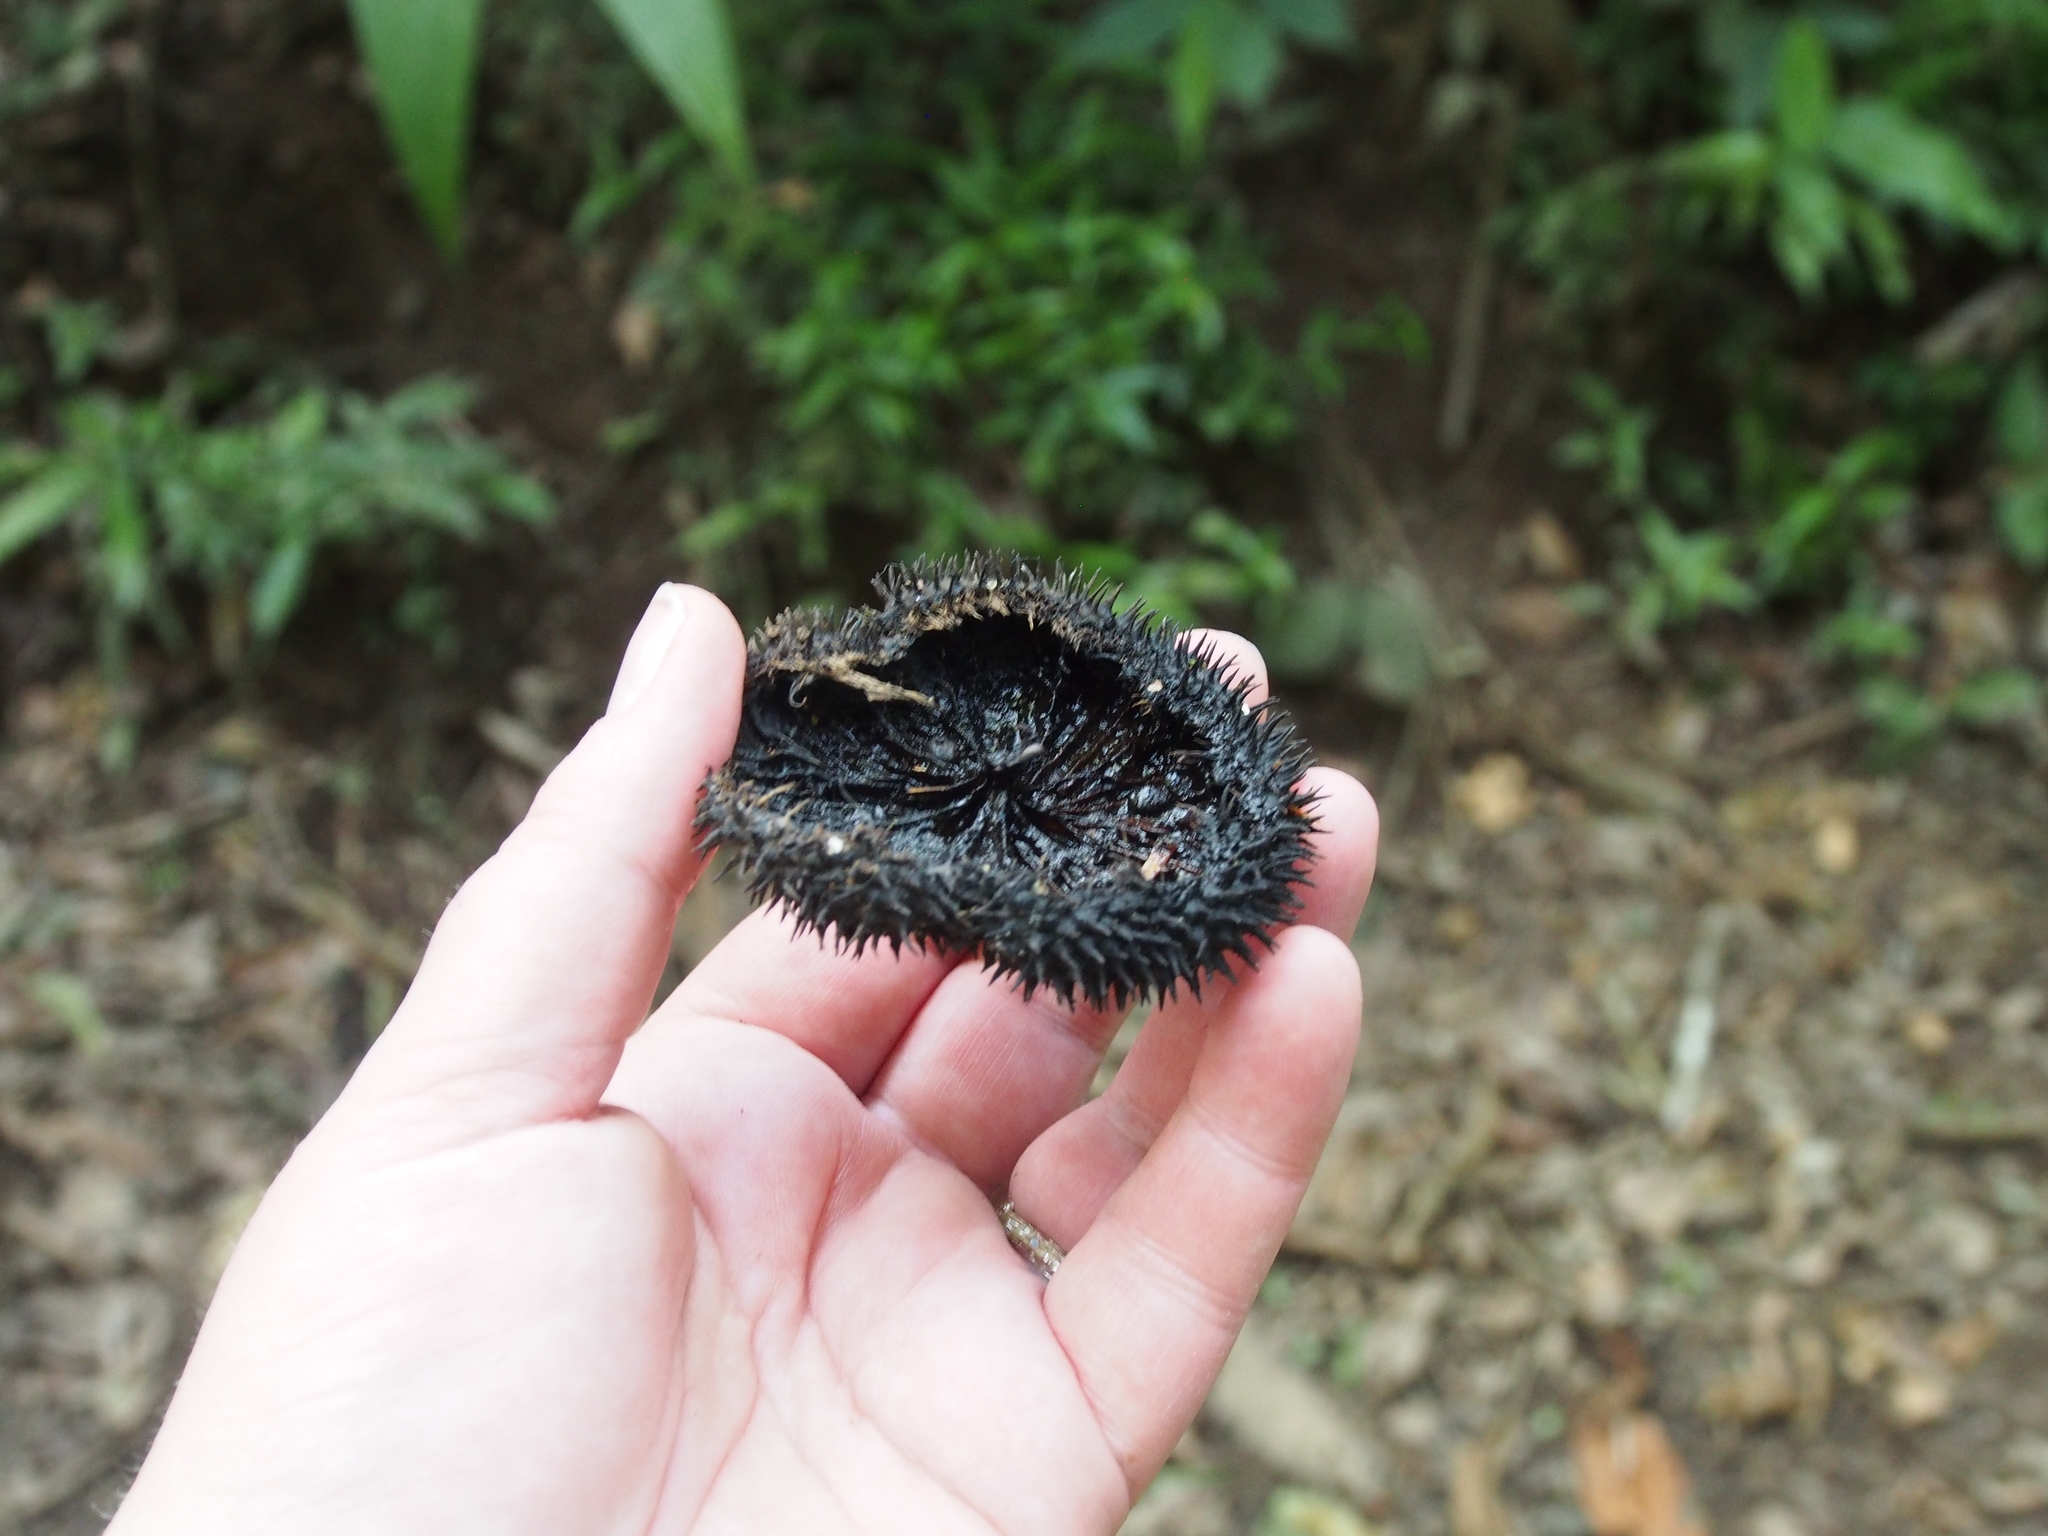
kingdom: Plantae
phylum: Tracheophyta
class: Magnoliopsida
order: Malvales
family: Malvaceae
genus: Apeiba
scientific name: Apeiba membranacea
